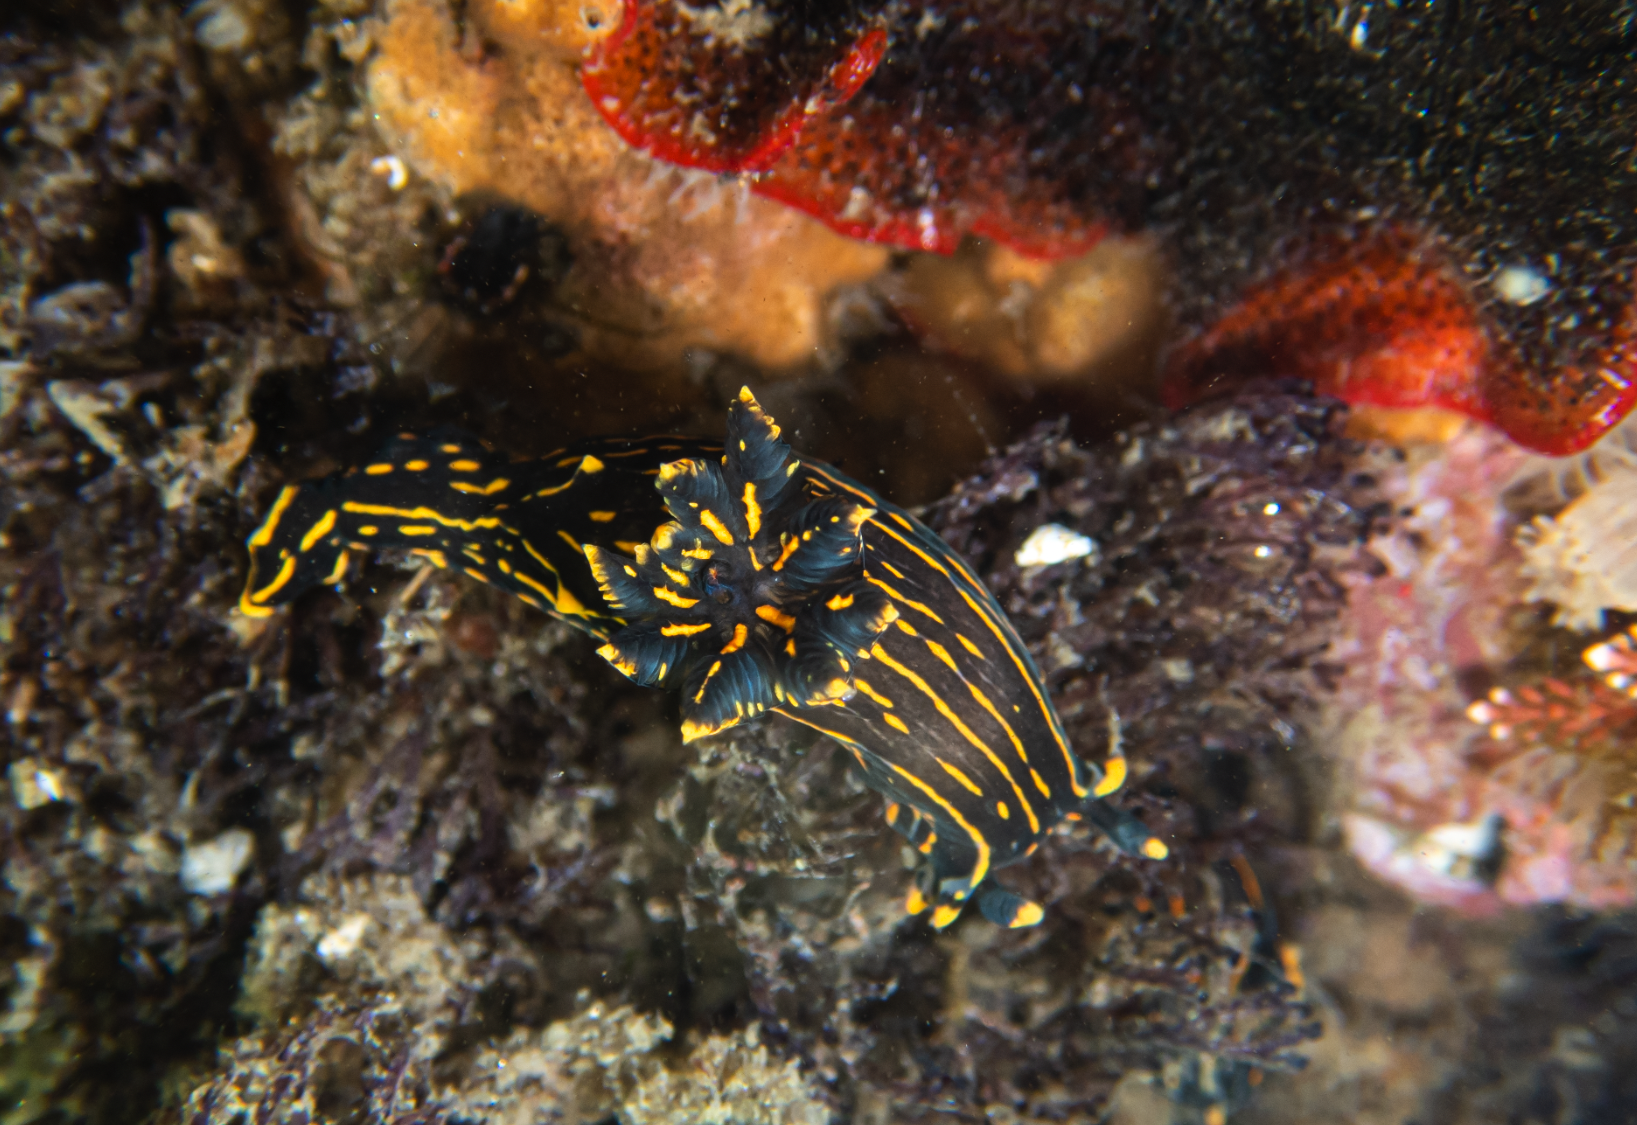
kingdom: Animalia
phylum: Mollusca
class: Gastropoda
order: Nudibranchia
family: Polyceridae
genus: Polycera
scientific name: Polycera atra
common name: Orange-spike polycera
